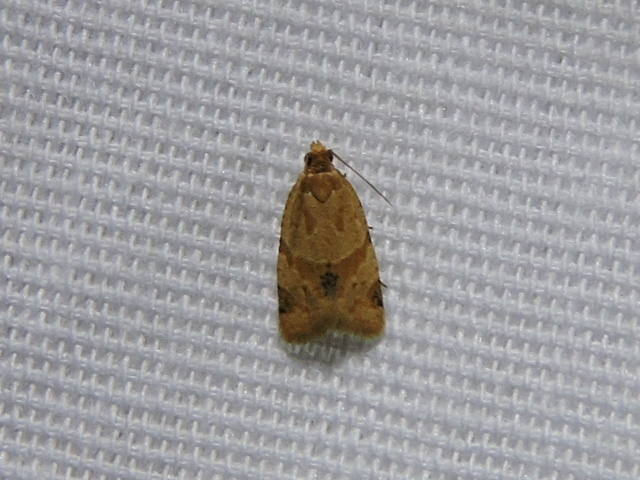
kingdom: Animalia
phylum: Arthropoda
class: Insecta
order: Lepidoptera
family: Tortricidae
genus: Clepsis
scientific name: Clepsis peritana
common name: Garden tortrix
